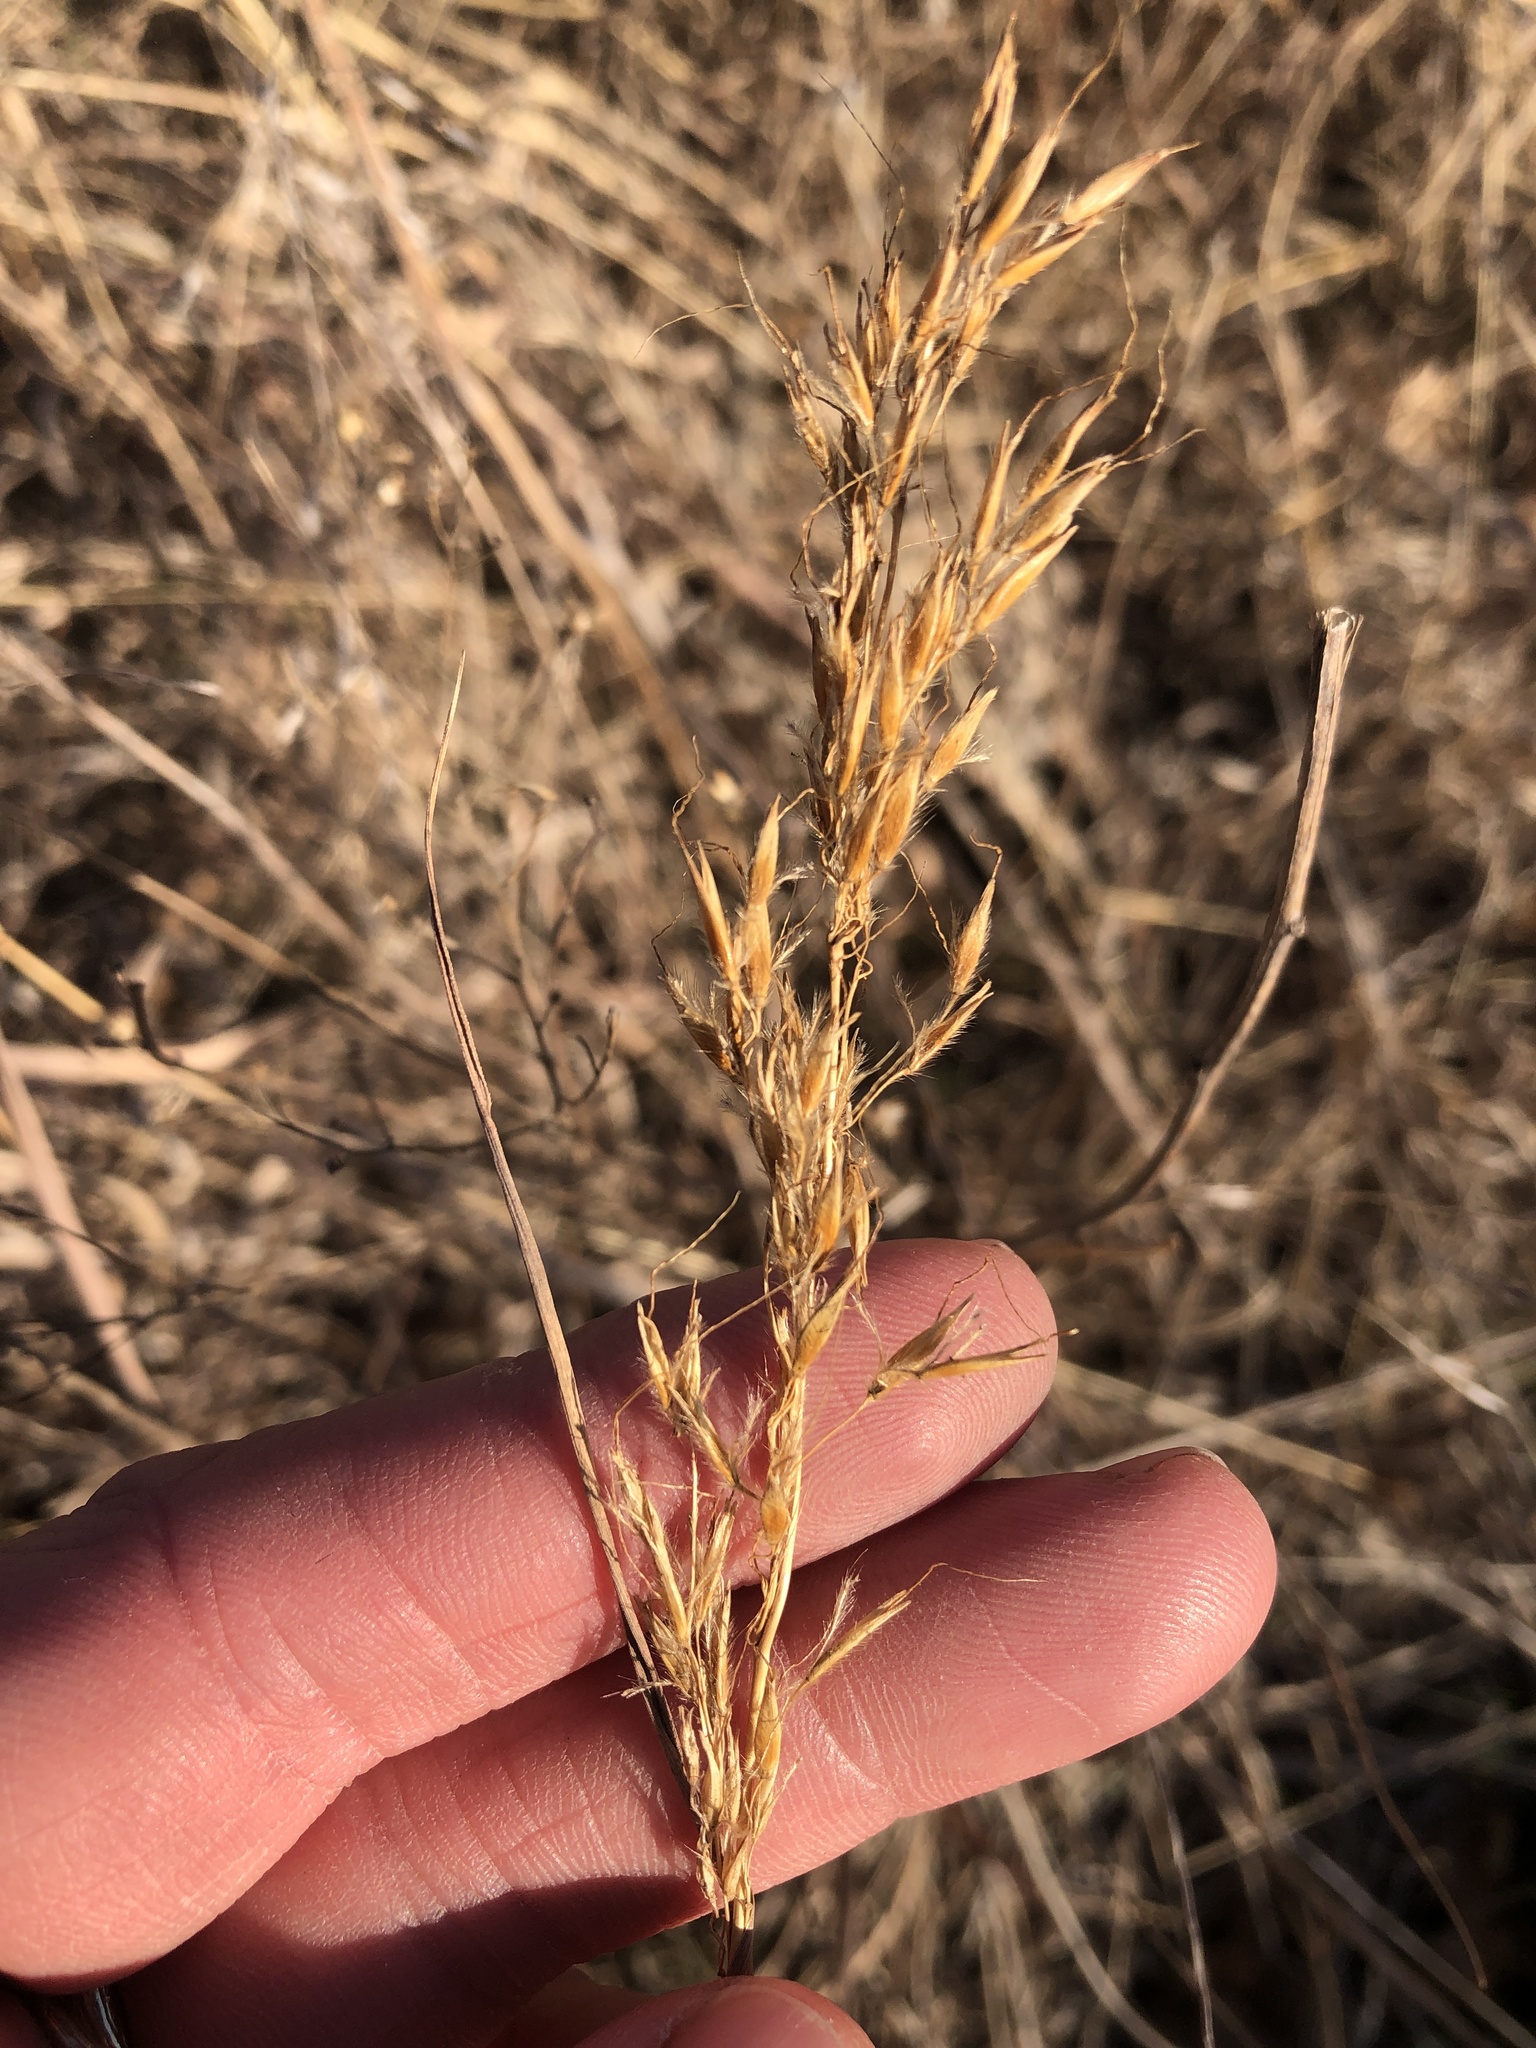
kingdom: Plantae
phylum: Tracheophyta
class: Liliopsida
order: Poales
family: Poaceae
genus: Sorghastrum
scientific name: Sorghastrum nutans
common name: Indian grass
